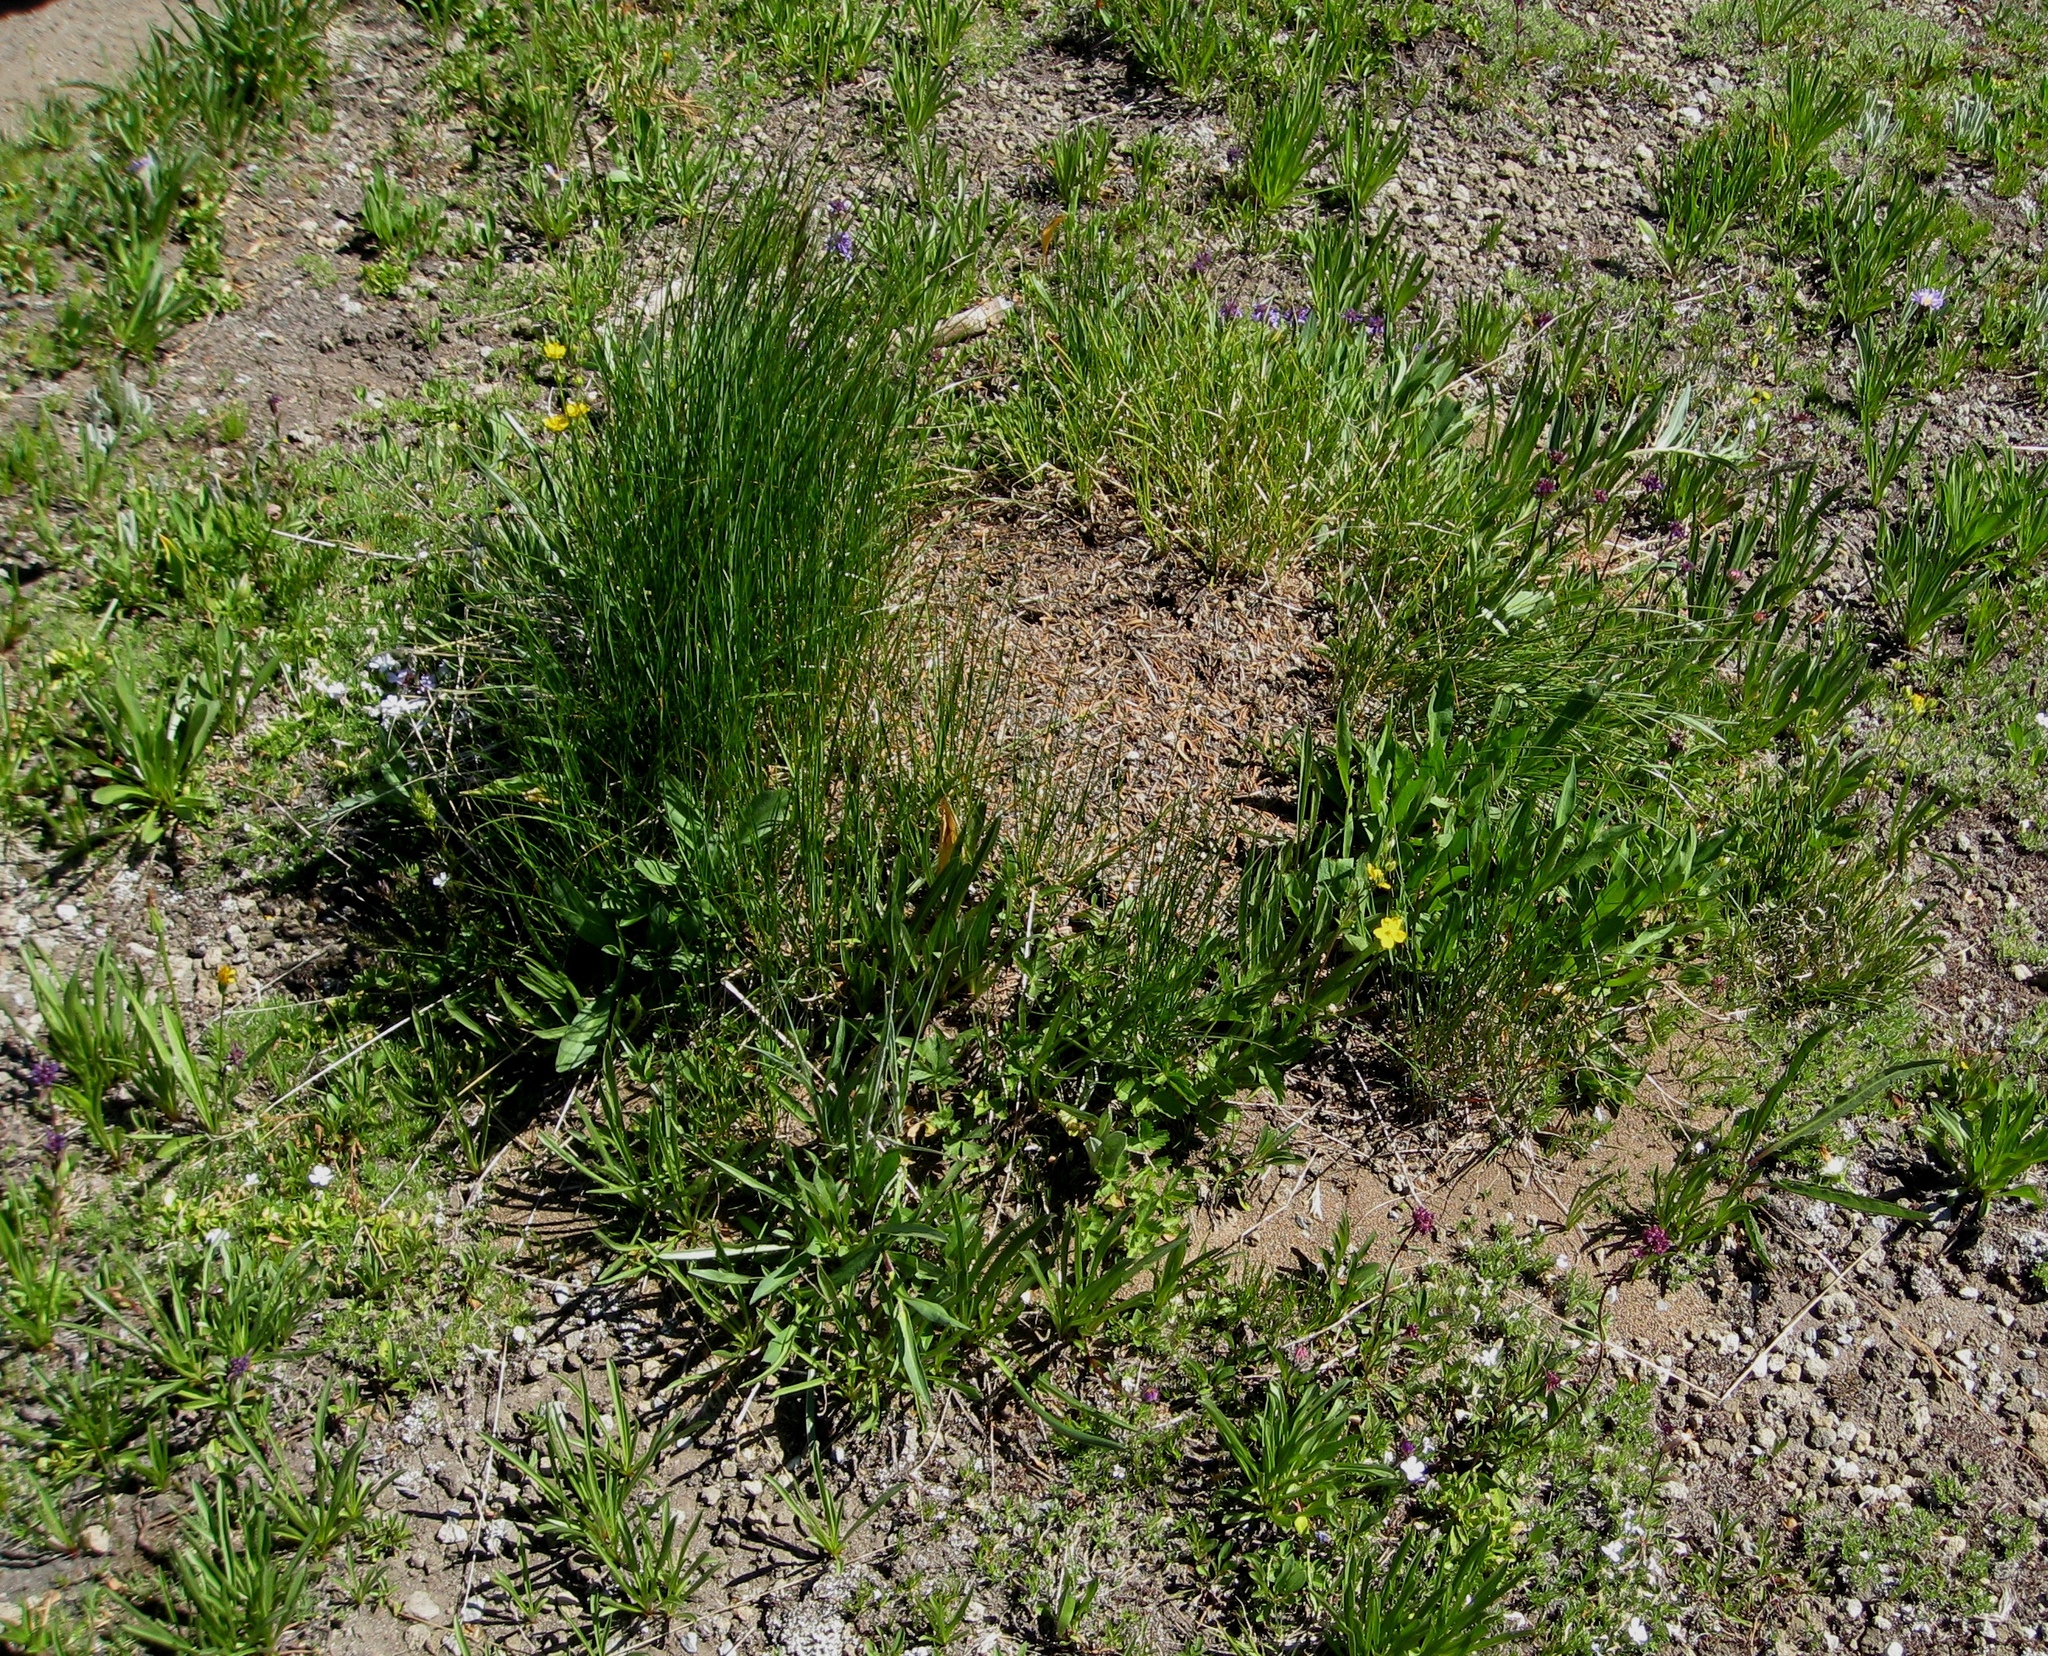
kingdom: Animalia
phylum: Arthropoda
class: Insecta
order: Hymenoptera
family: Formicidae
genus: Formica
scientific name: Formica obscuripes
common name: Western thatching ant
